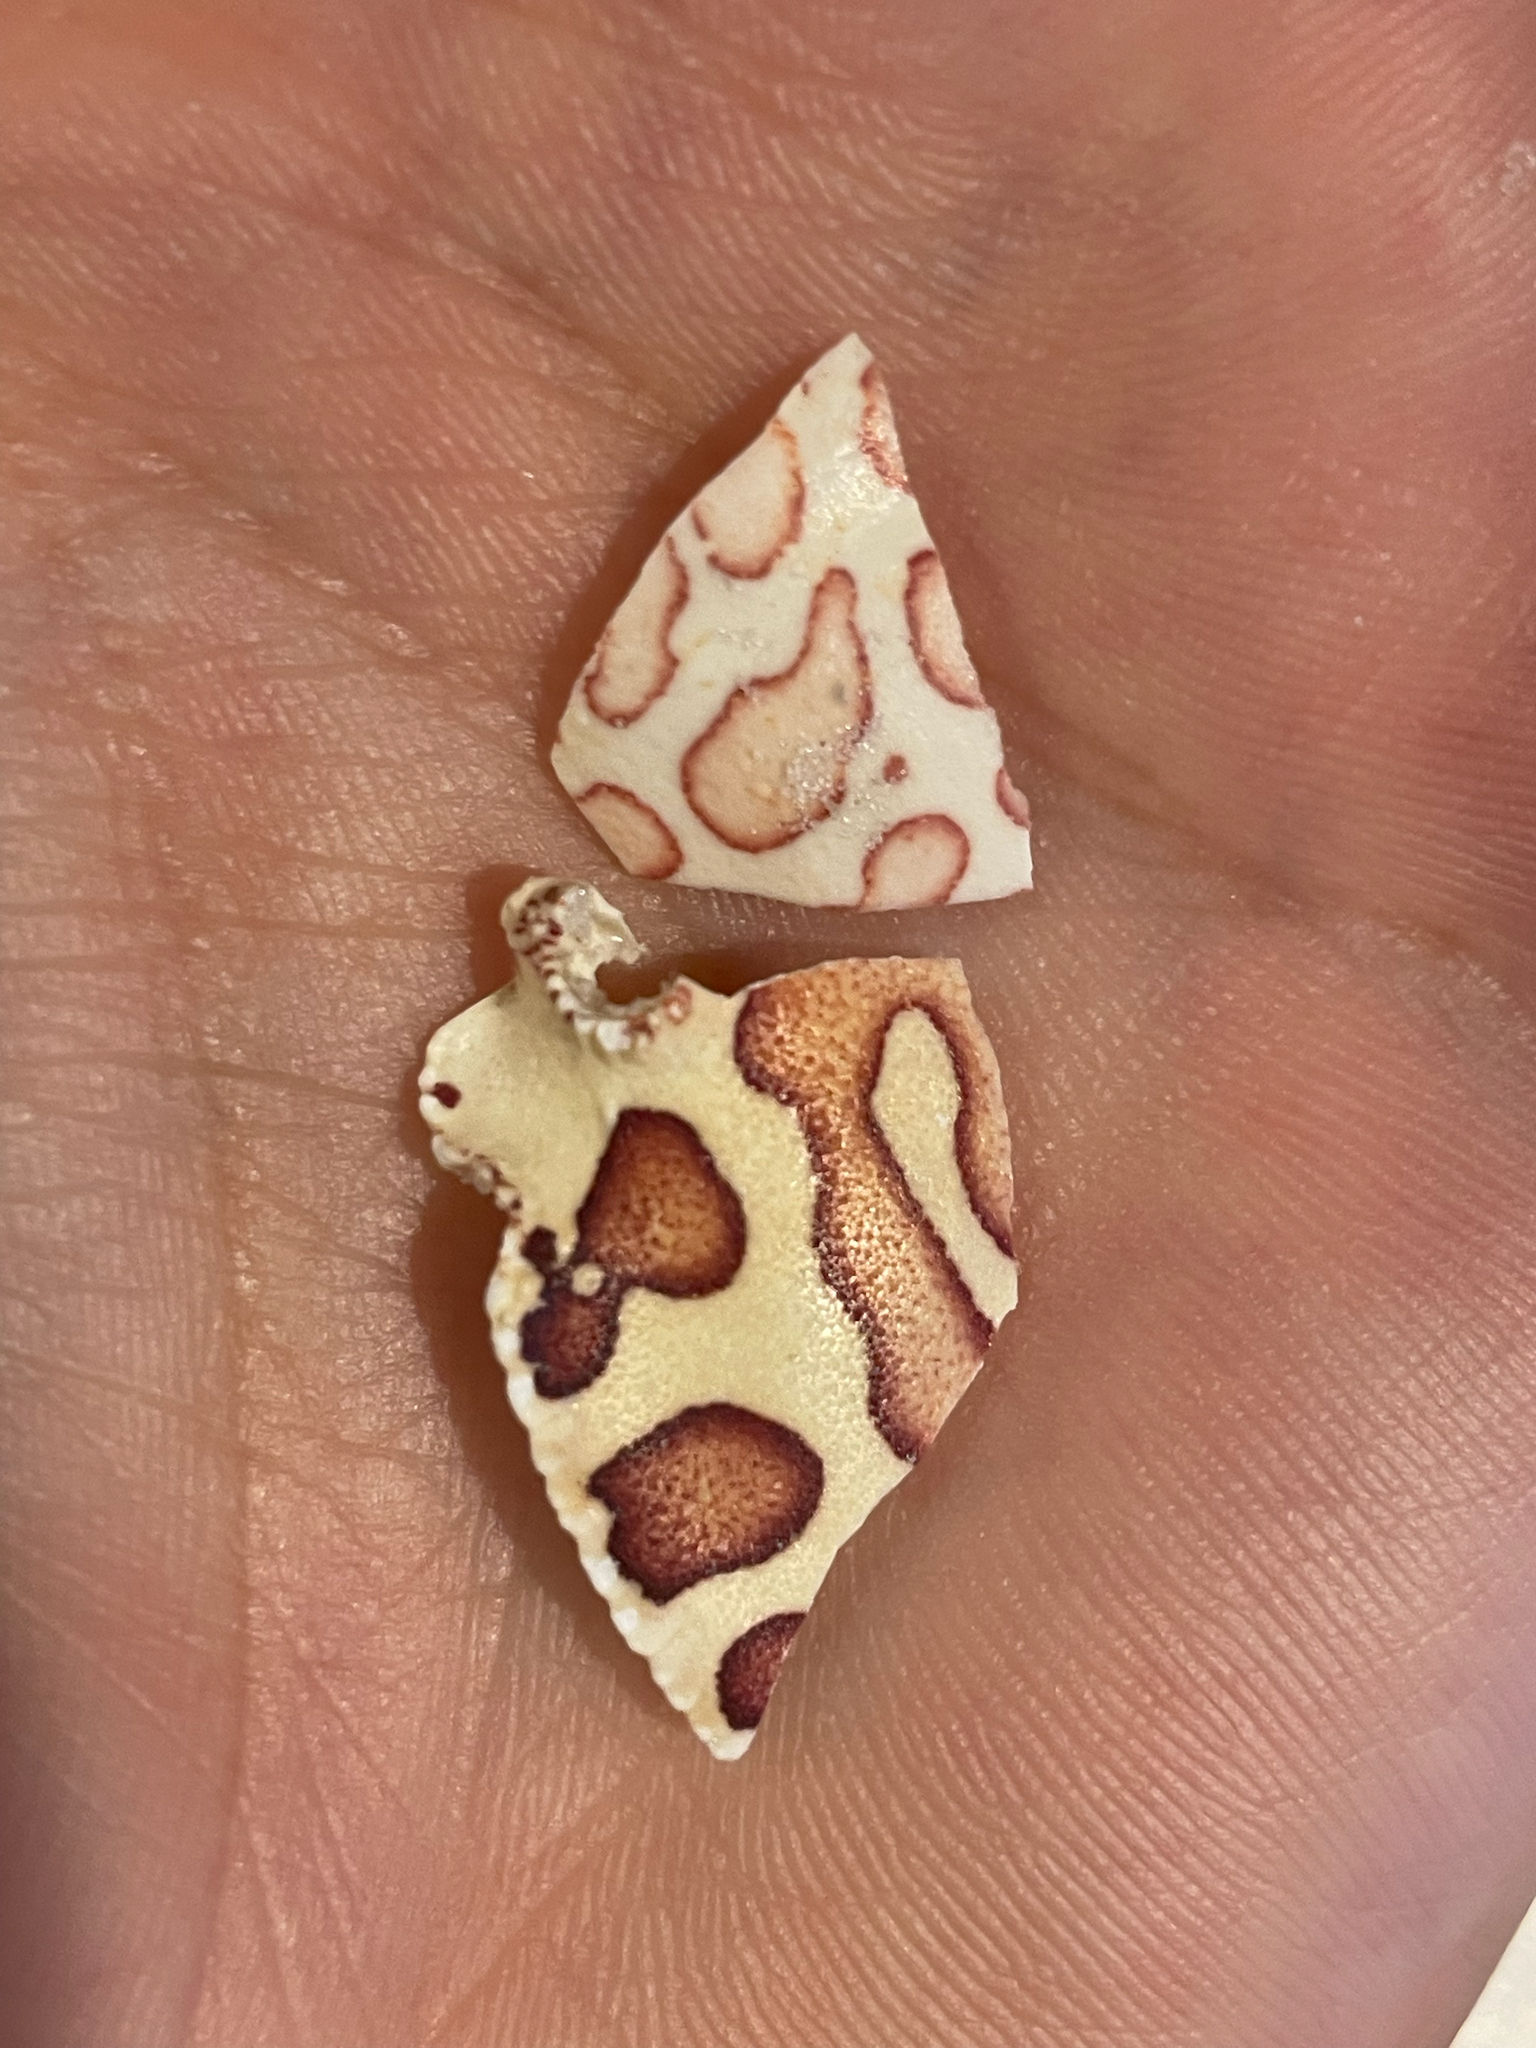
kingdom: Animalia
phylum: Arthropoda
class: Malacostraca
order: Decapoda
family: Aethridae
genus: Hepatus
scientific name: Hepatus epheliticus
